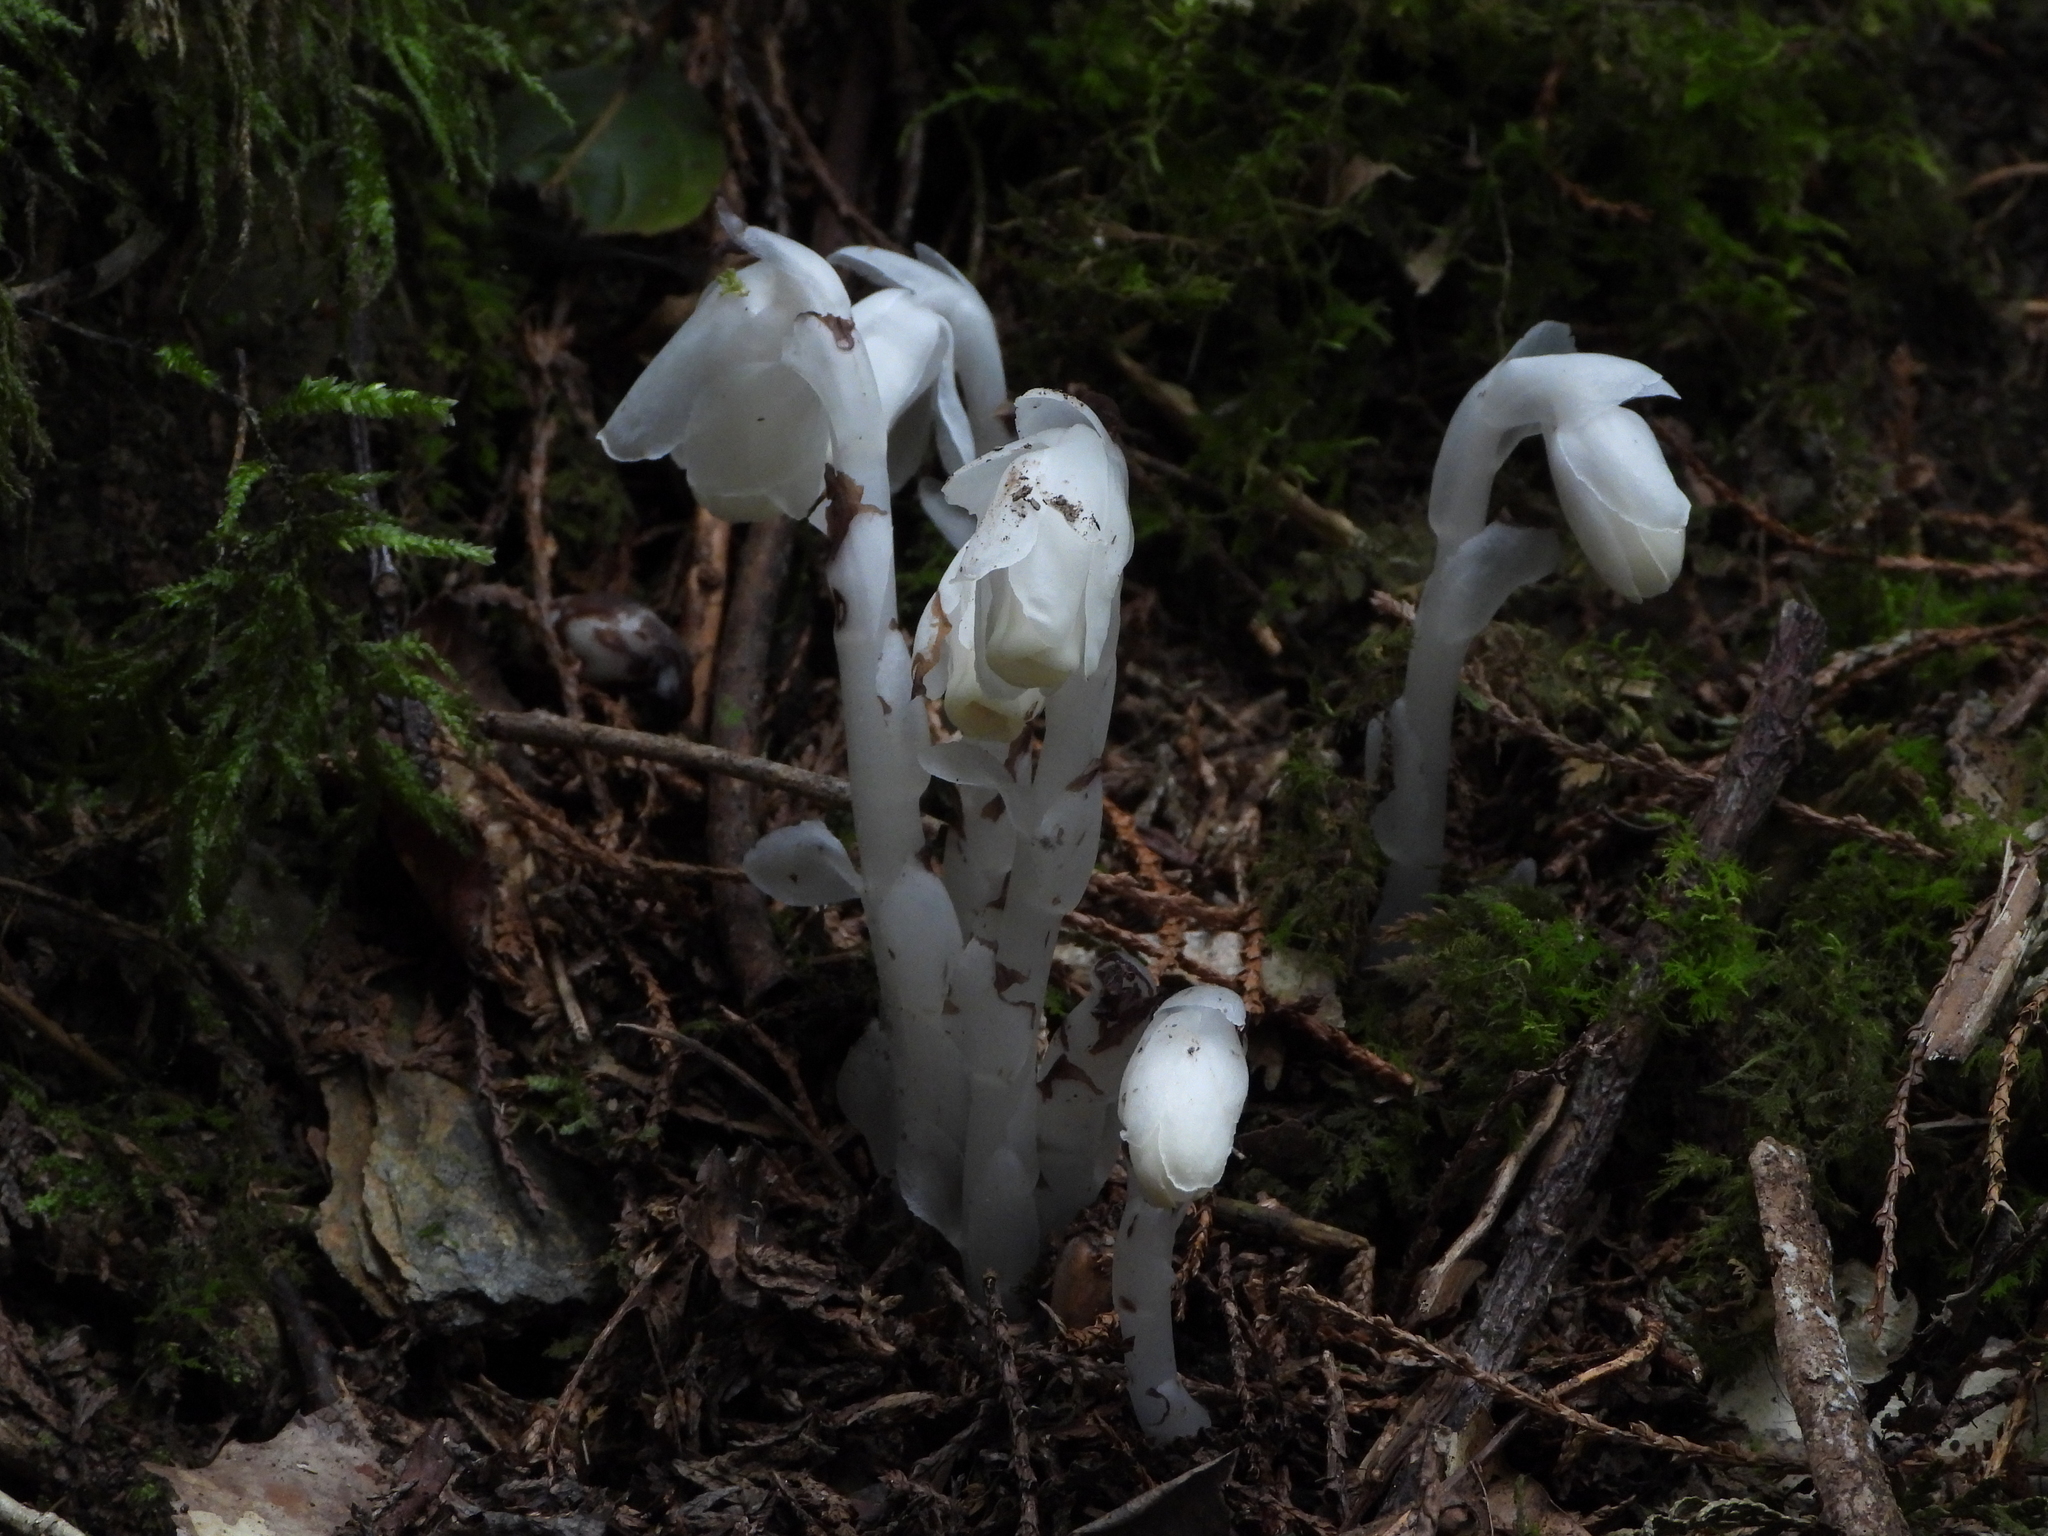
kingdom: Plantae
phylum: Tracheophyta
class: Magnoliopsida
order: Ericales
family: Ericaceae
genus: Monotropastrum
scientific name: Monotropastrum humile
